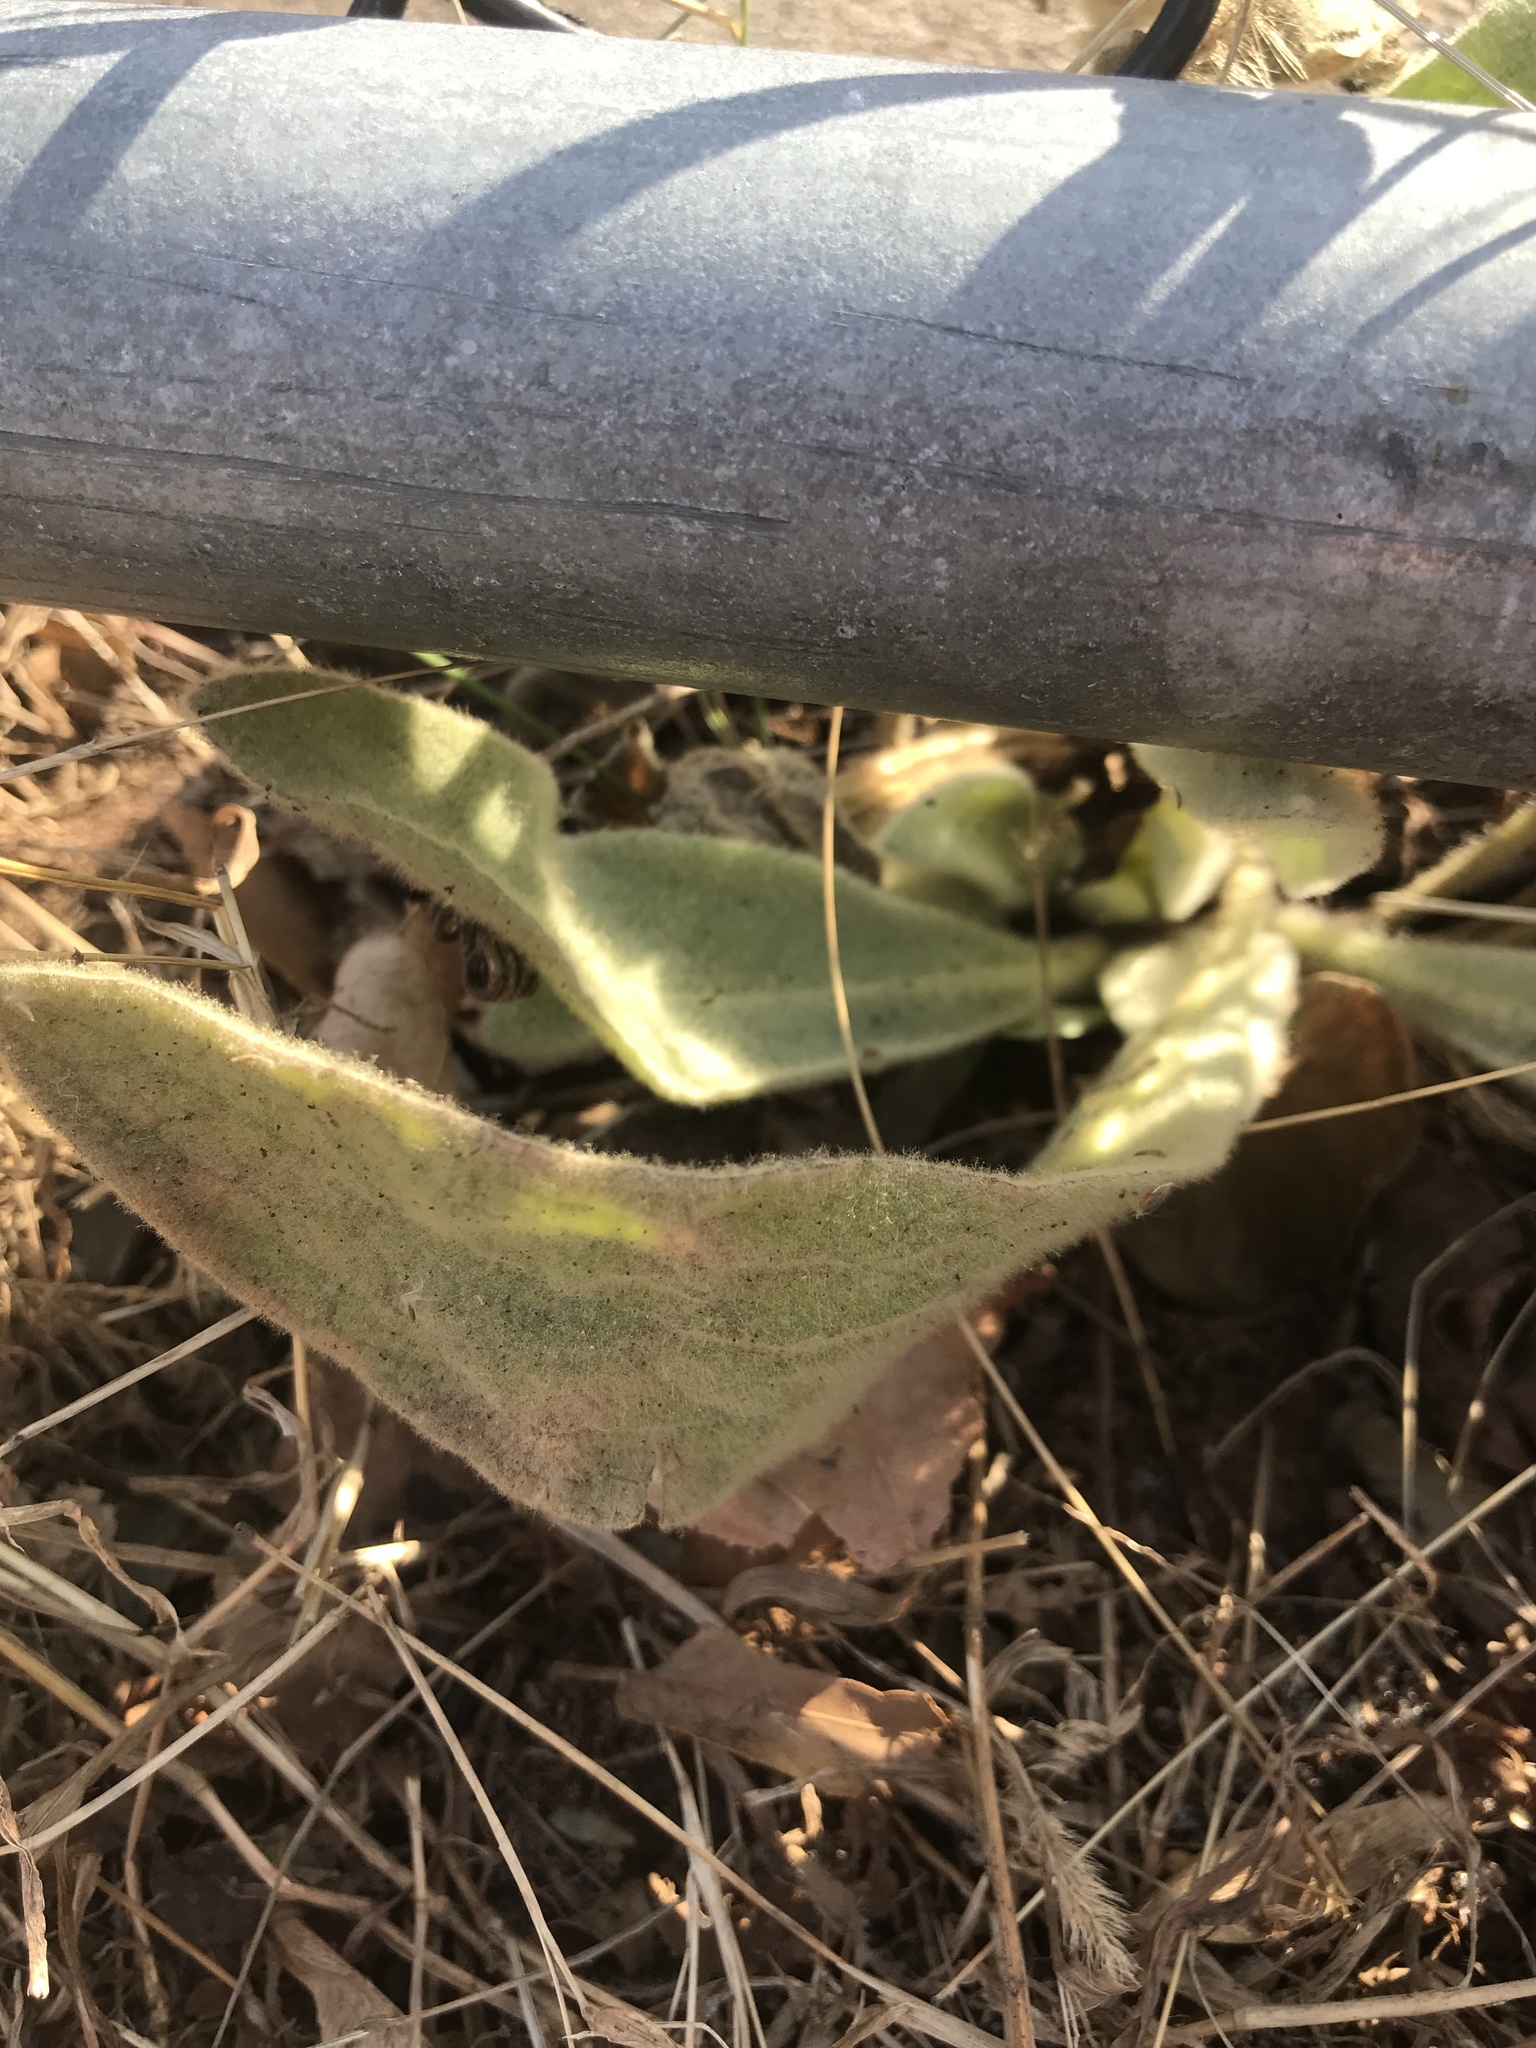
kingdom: Plantae
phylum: Tracheophyta
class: Magnoliopsida
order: Lamiales
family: Scrophulariaceae
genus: Verbascum
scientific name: Verbascum thapsus
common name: Common mullein
